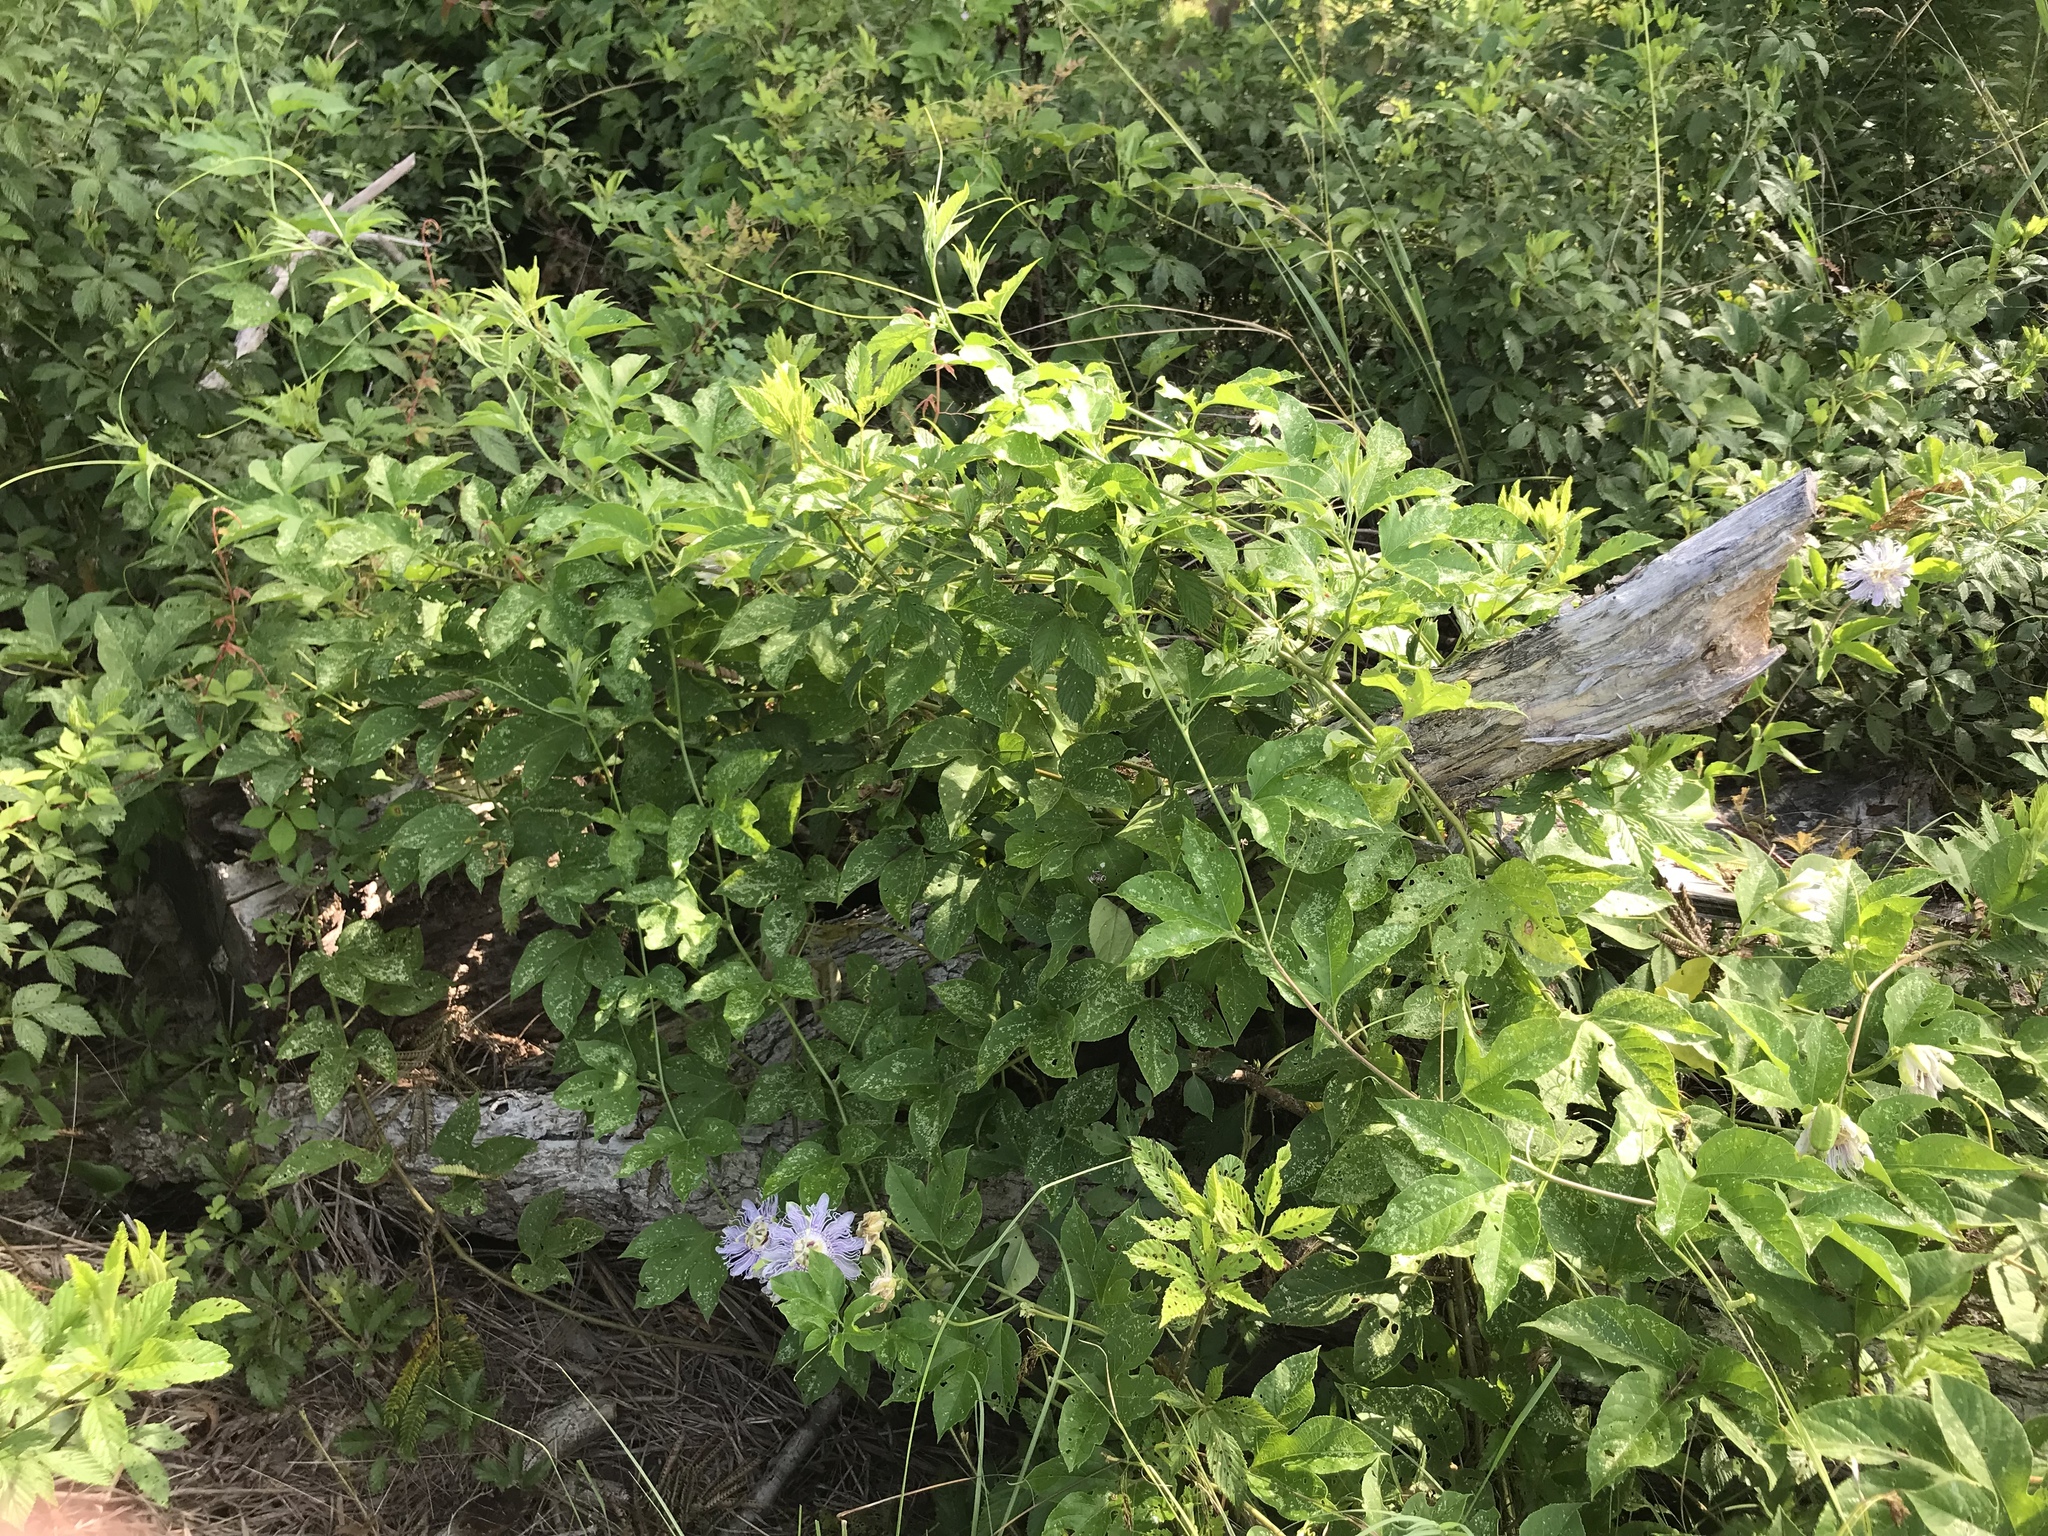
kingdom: Plantae
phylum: Tracheophyta
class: Magnoliopsida
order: Malpighiales
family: Passifloraceae
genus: Passiflora
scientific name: Passiflora incarnata
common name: Apricot-vine
